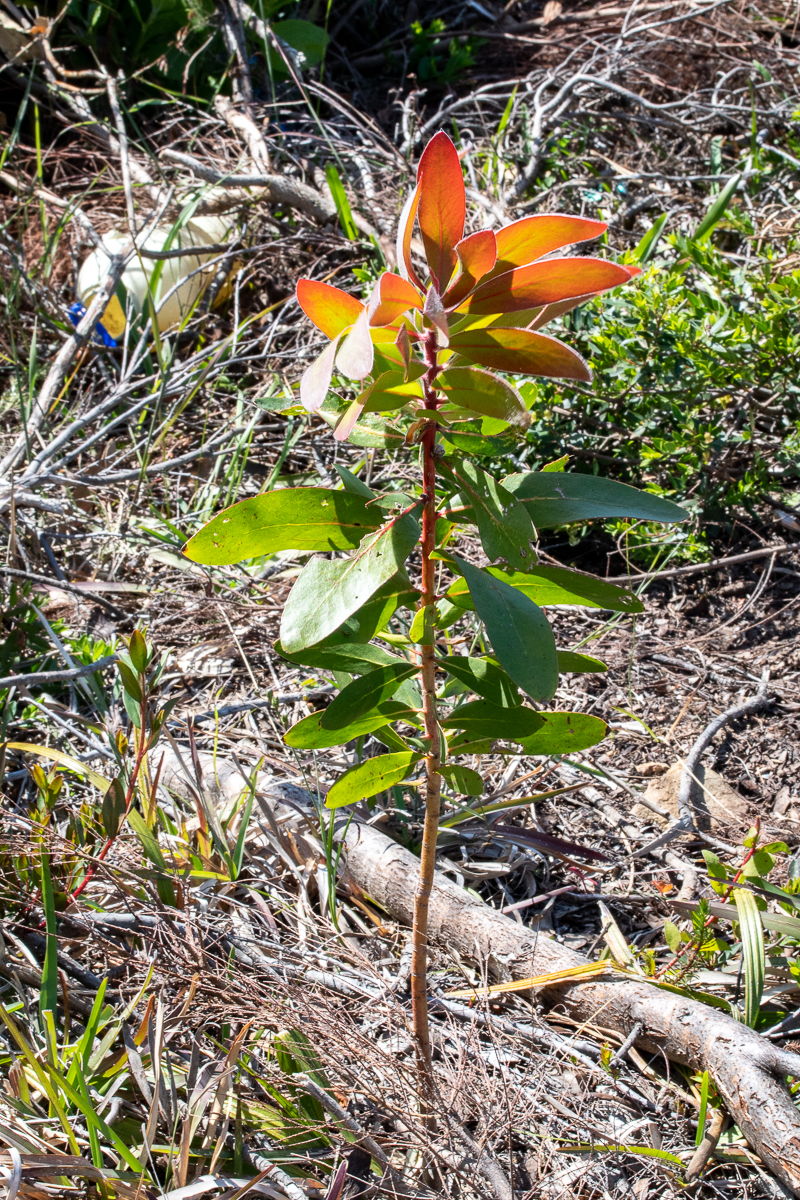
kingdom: Plantae
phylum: Tracheophyta
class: Magnoliopsida
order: Proteales
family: Proteaceae
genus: Protea
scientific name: Protea mundii
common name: Forest sugarbush
